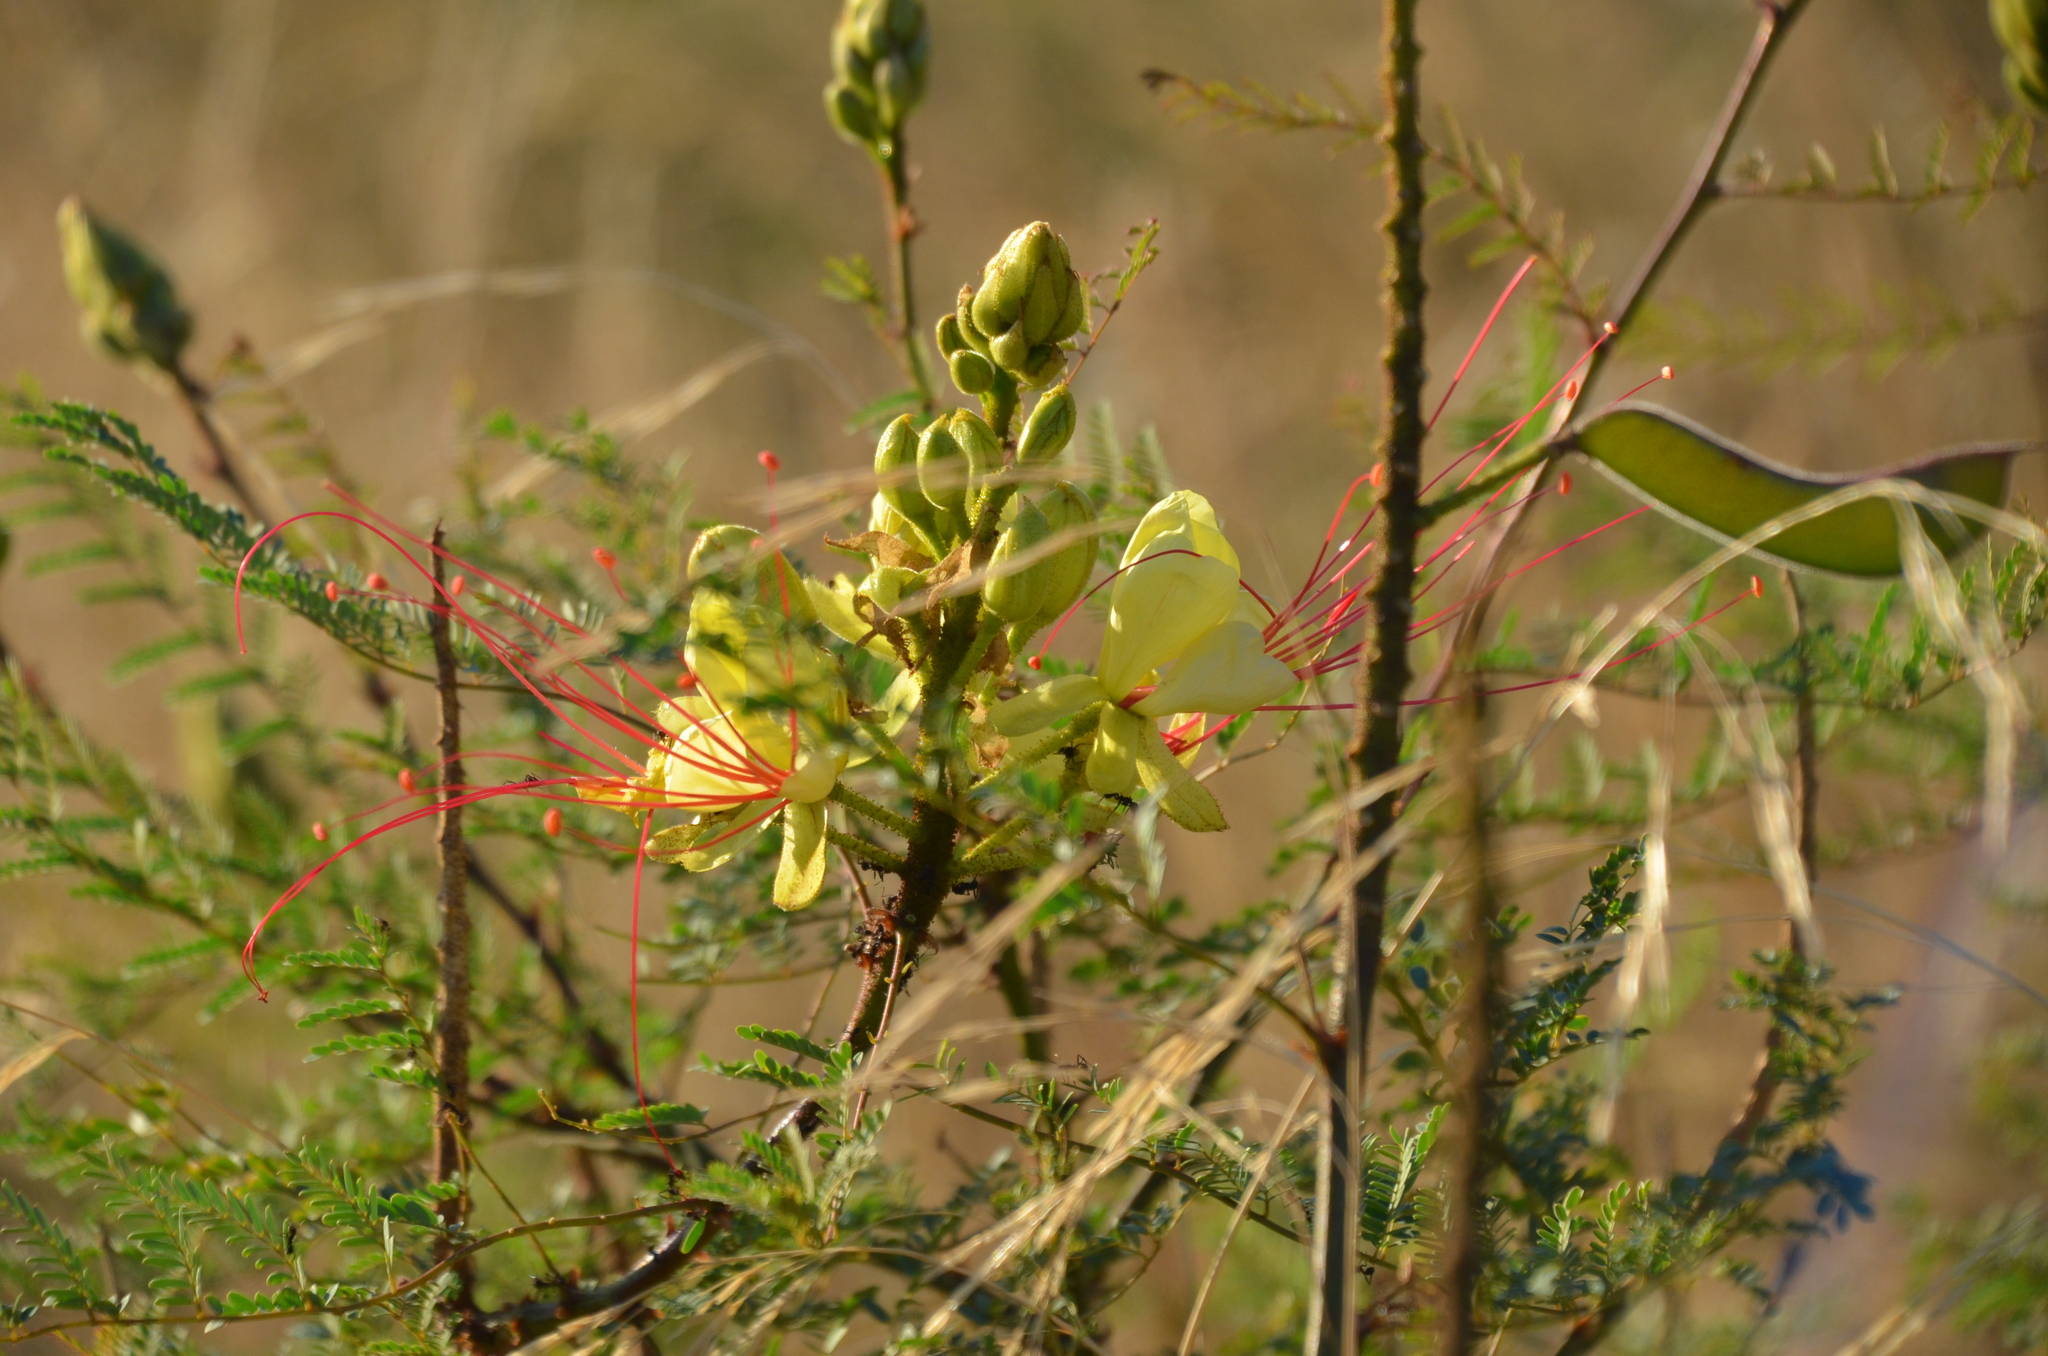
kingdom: Plantae
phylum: Tracheophyta
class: Magnoliopsida
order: Fabales
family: Fabaceae
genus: Erythrostemon
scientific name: Erythrostemon gilliesii
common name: Bird-of-paradise shrub
